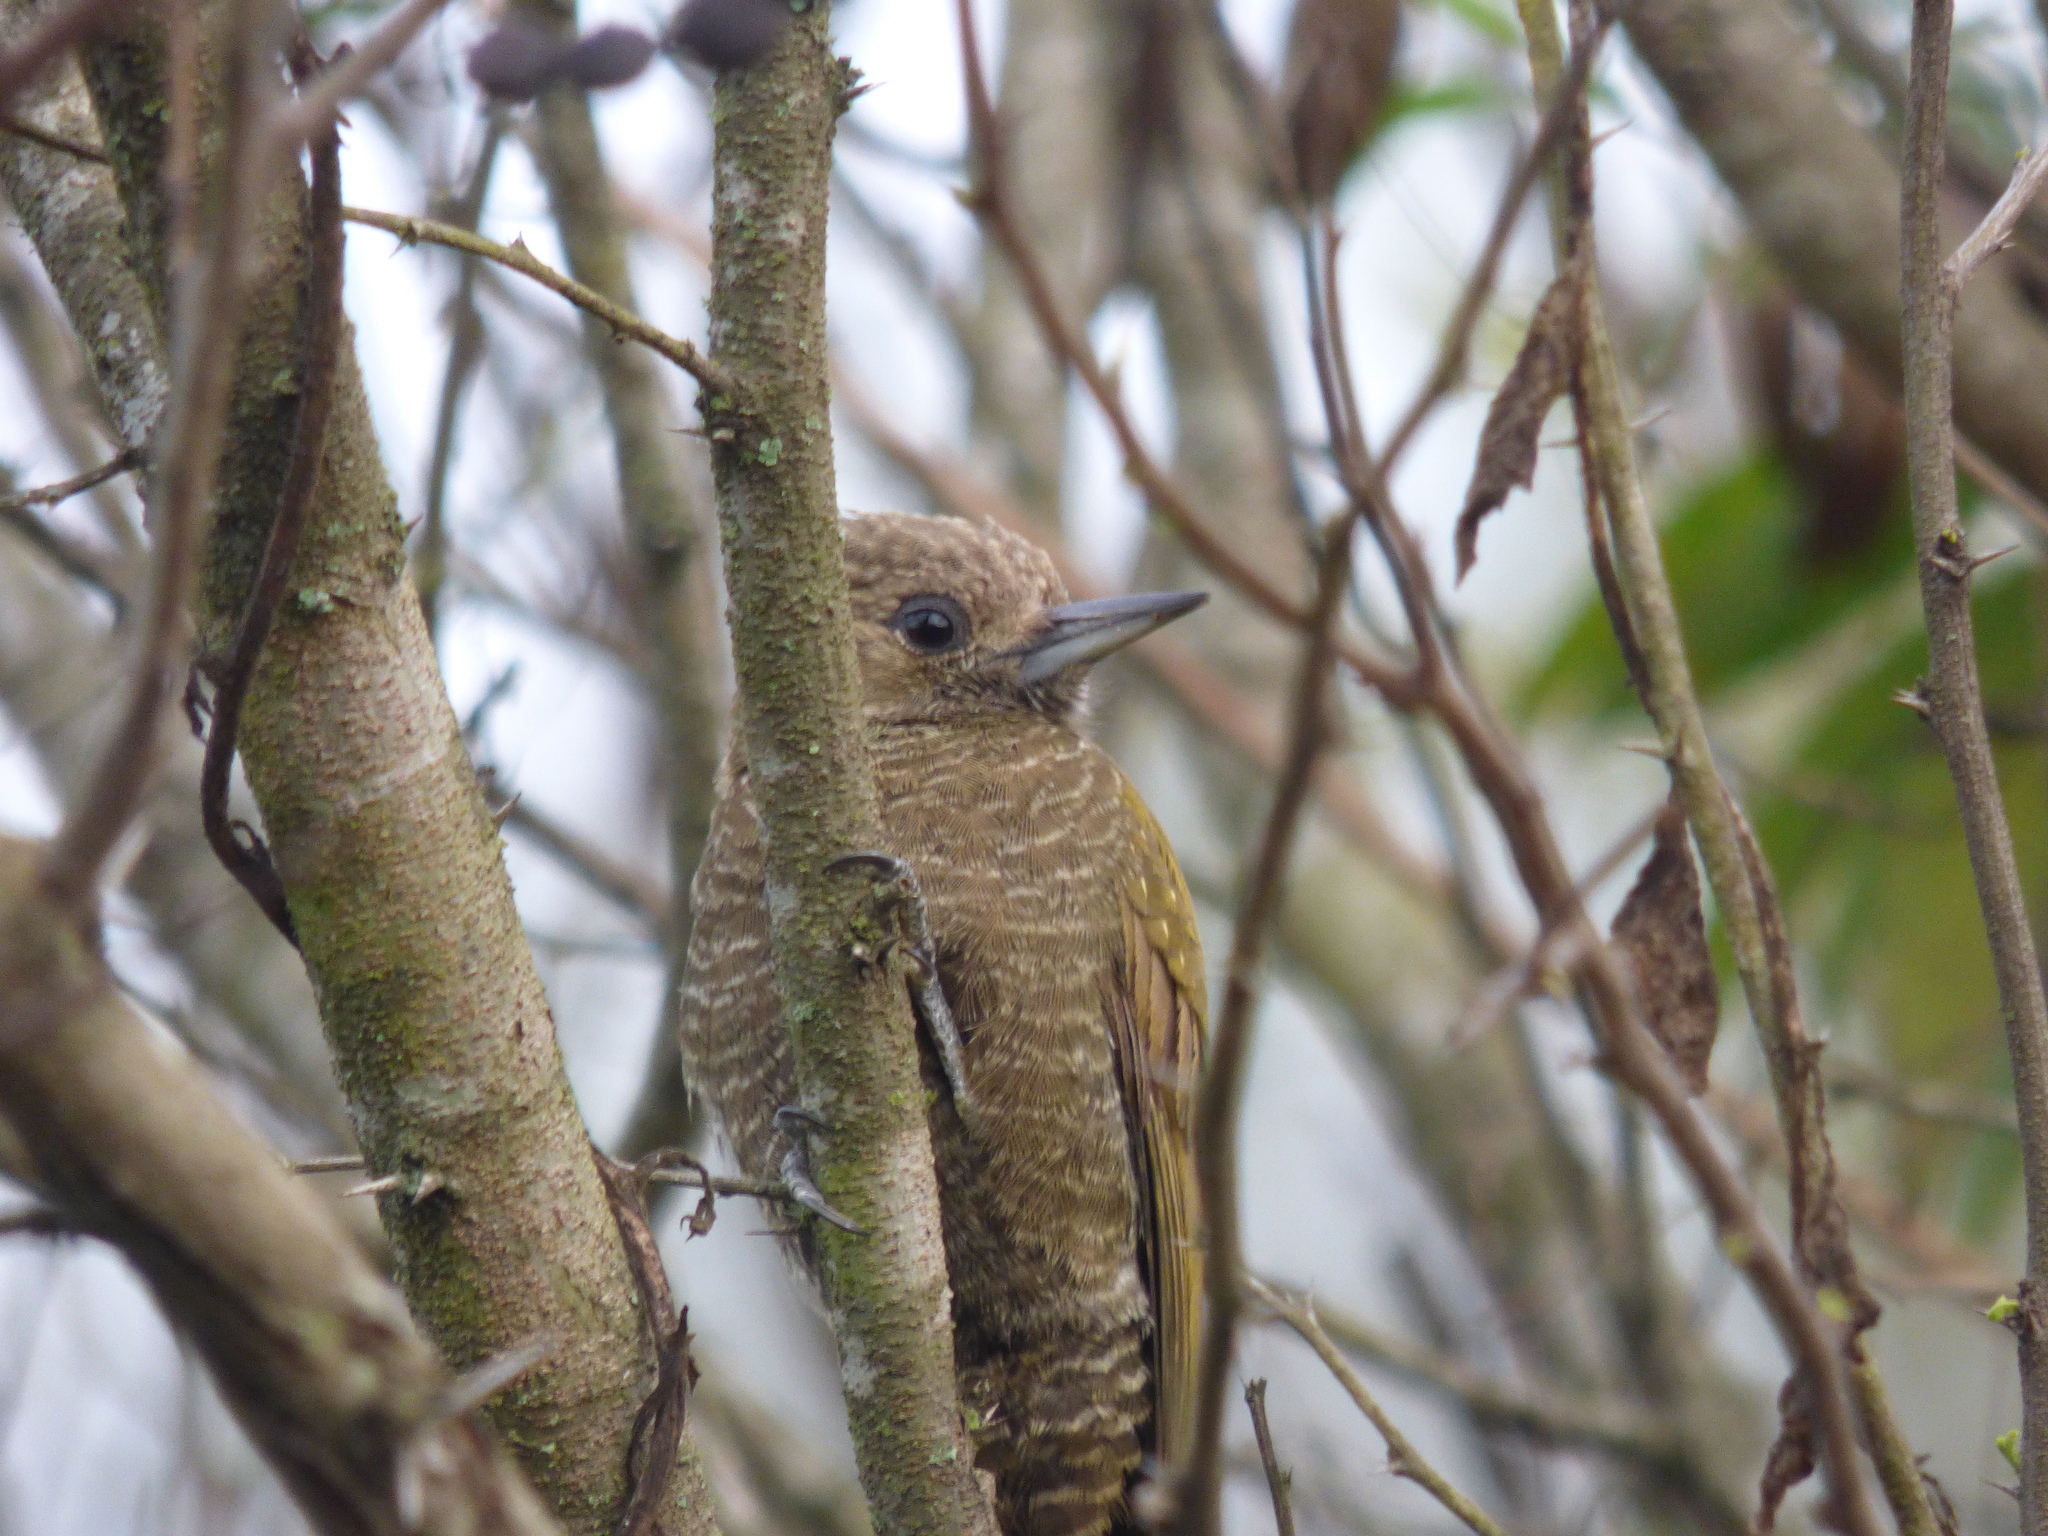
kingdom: Animalia
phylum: Chordata
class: Aves
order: Piciformes
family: Picidae
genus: Veniliornis
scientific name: Veniliornis passerinus
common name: Little woodpecker
